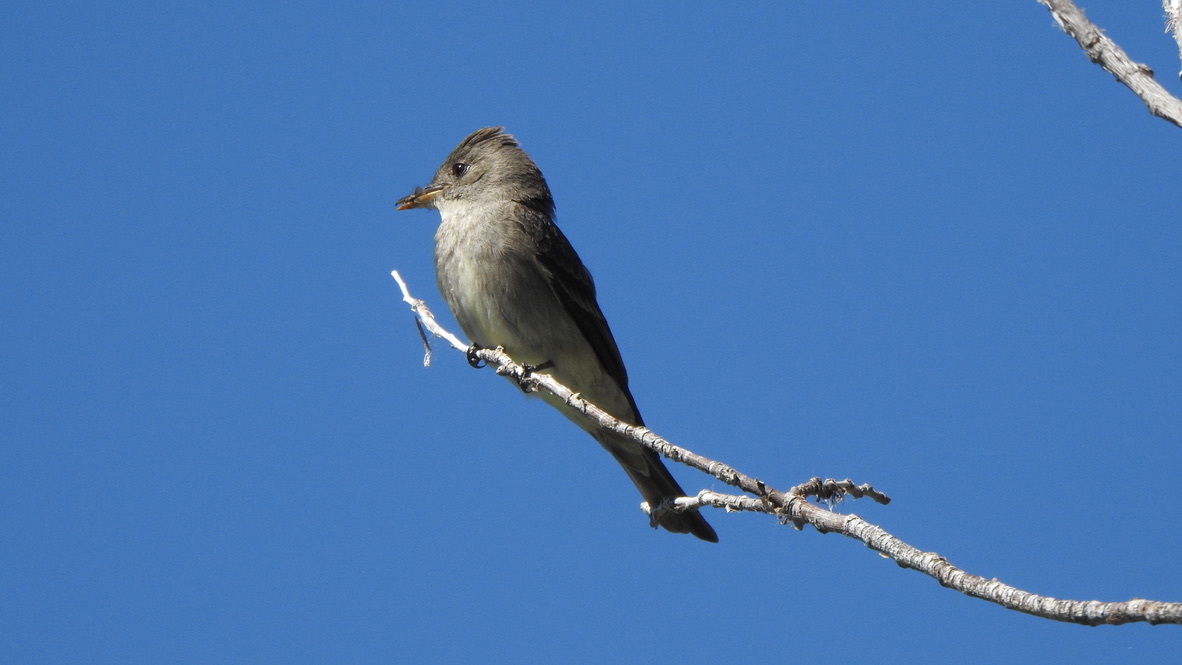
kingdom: Animalia
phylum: Chordata
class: Aves
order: Passeriformes
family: Tyrannidae
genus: Contopus
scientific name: Contopus sordidulus
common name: Western wood-pewee
